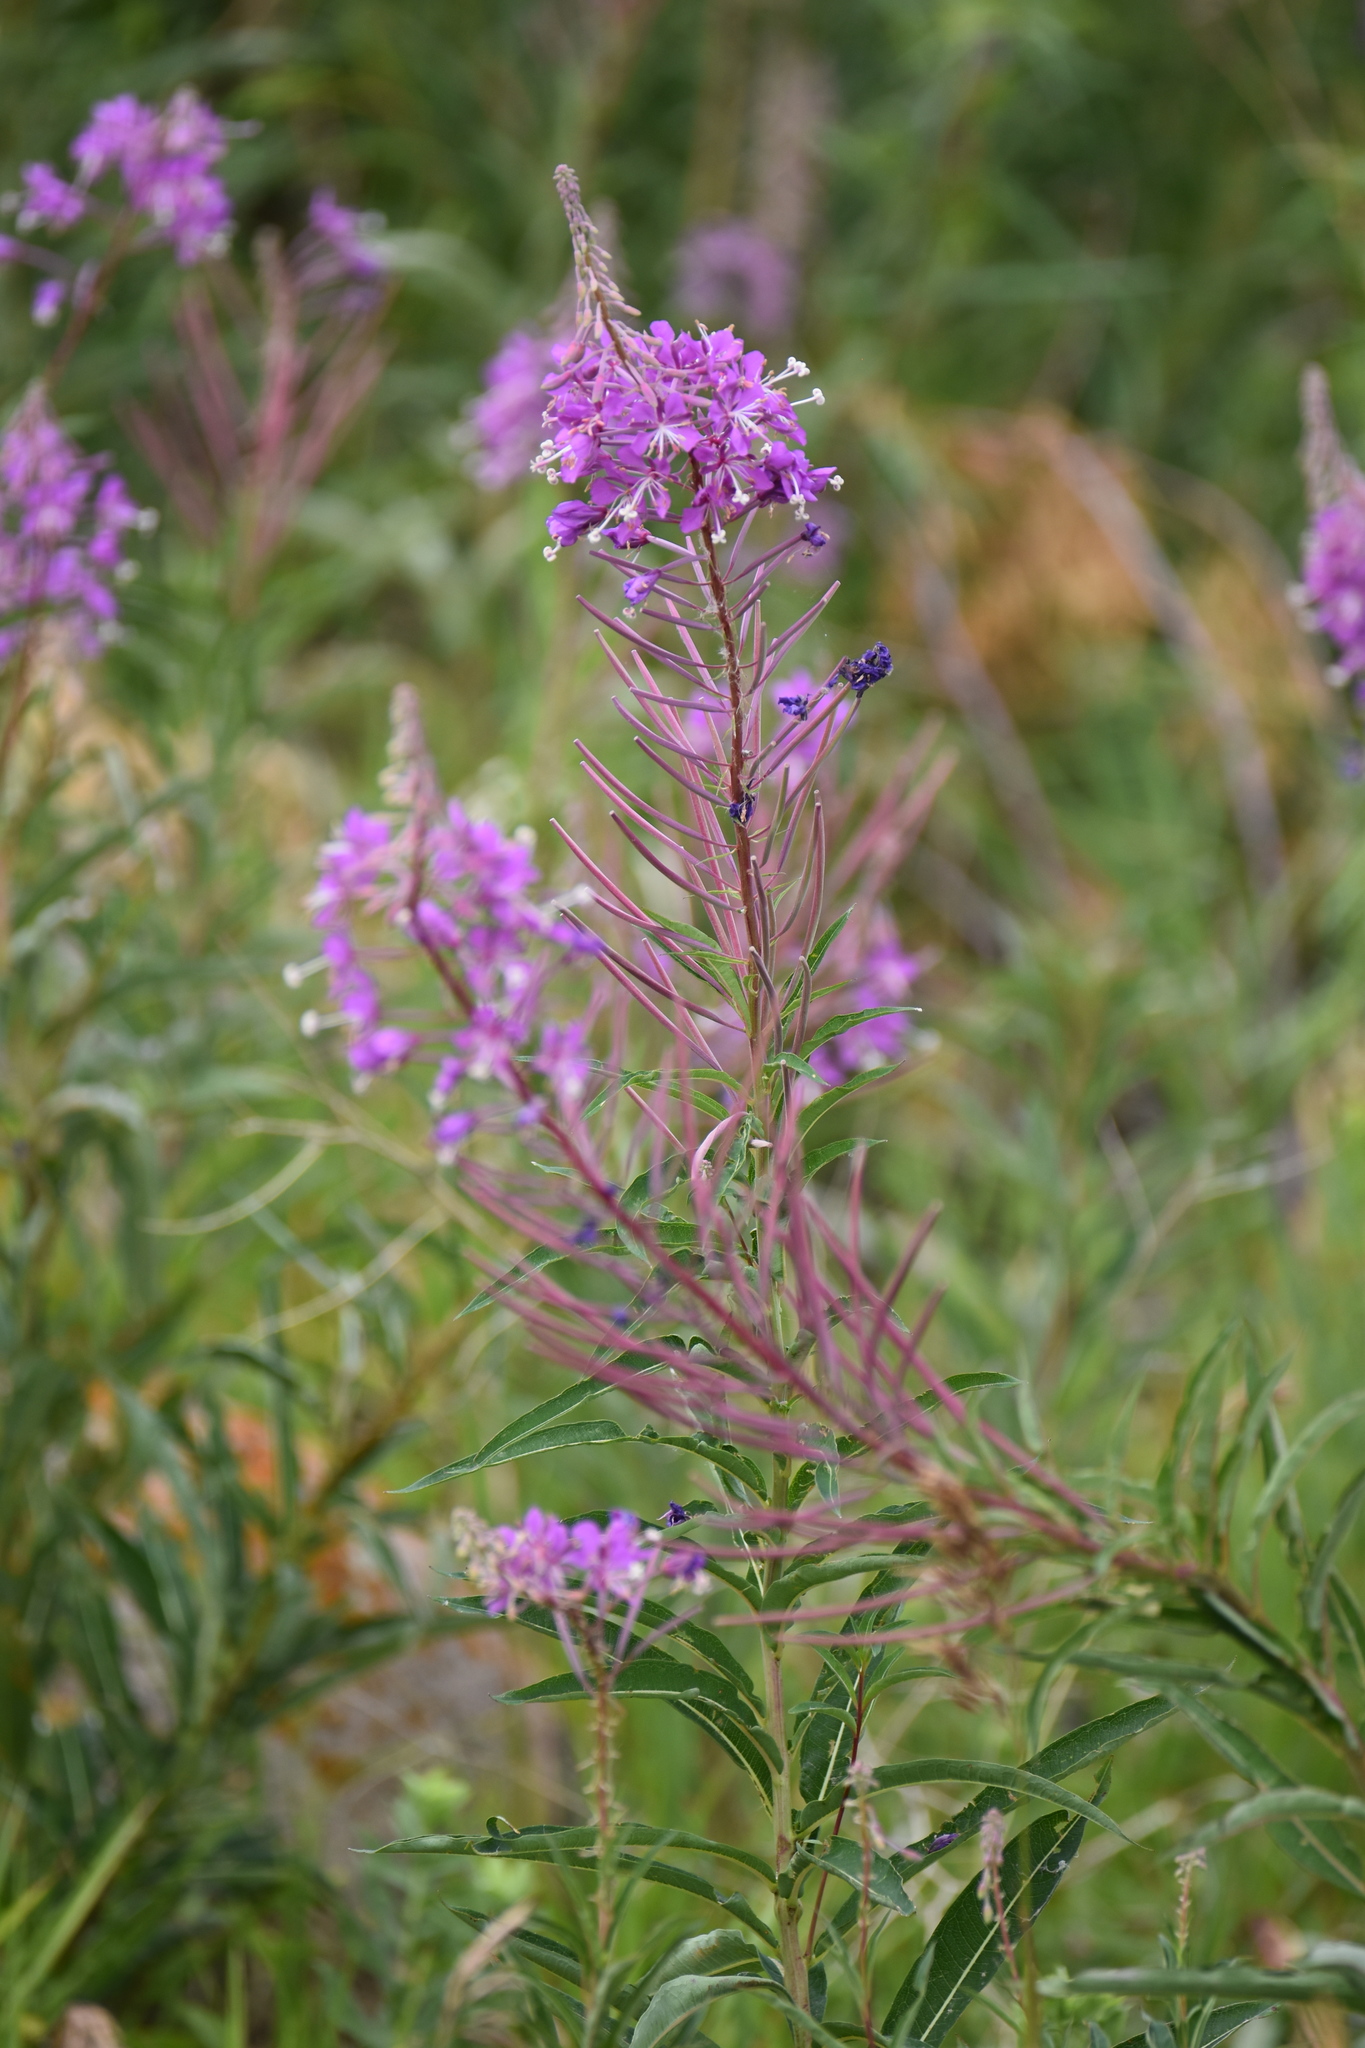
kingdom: Plantae
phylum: Tracheophyta
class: Magnoliopsida
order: Myrtales
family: Onagraceae
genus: Chamaenerion
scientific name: Chamaenerion angustifolium
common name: Fireweed
